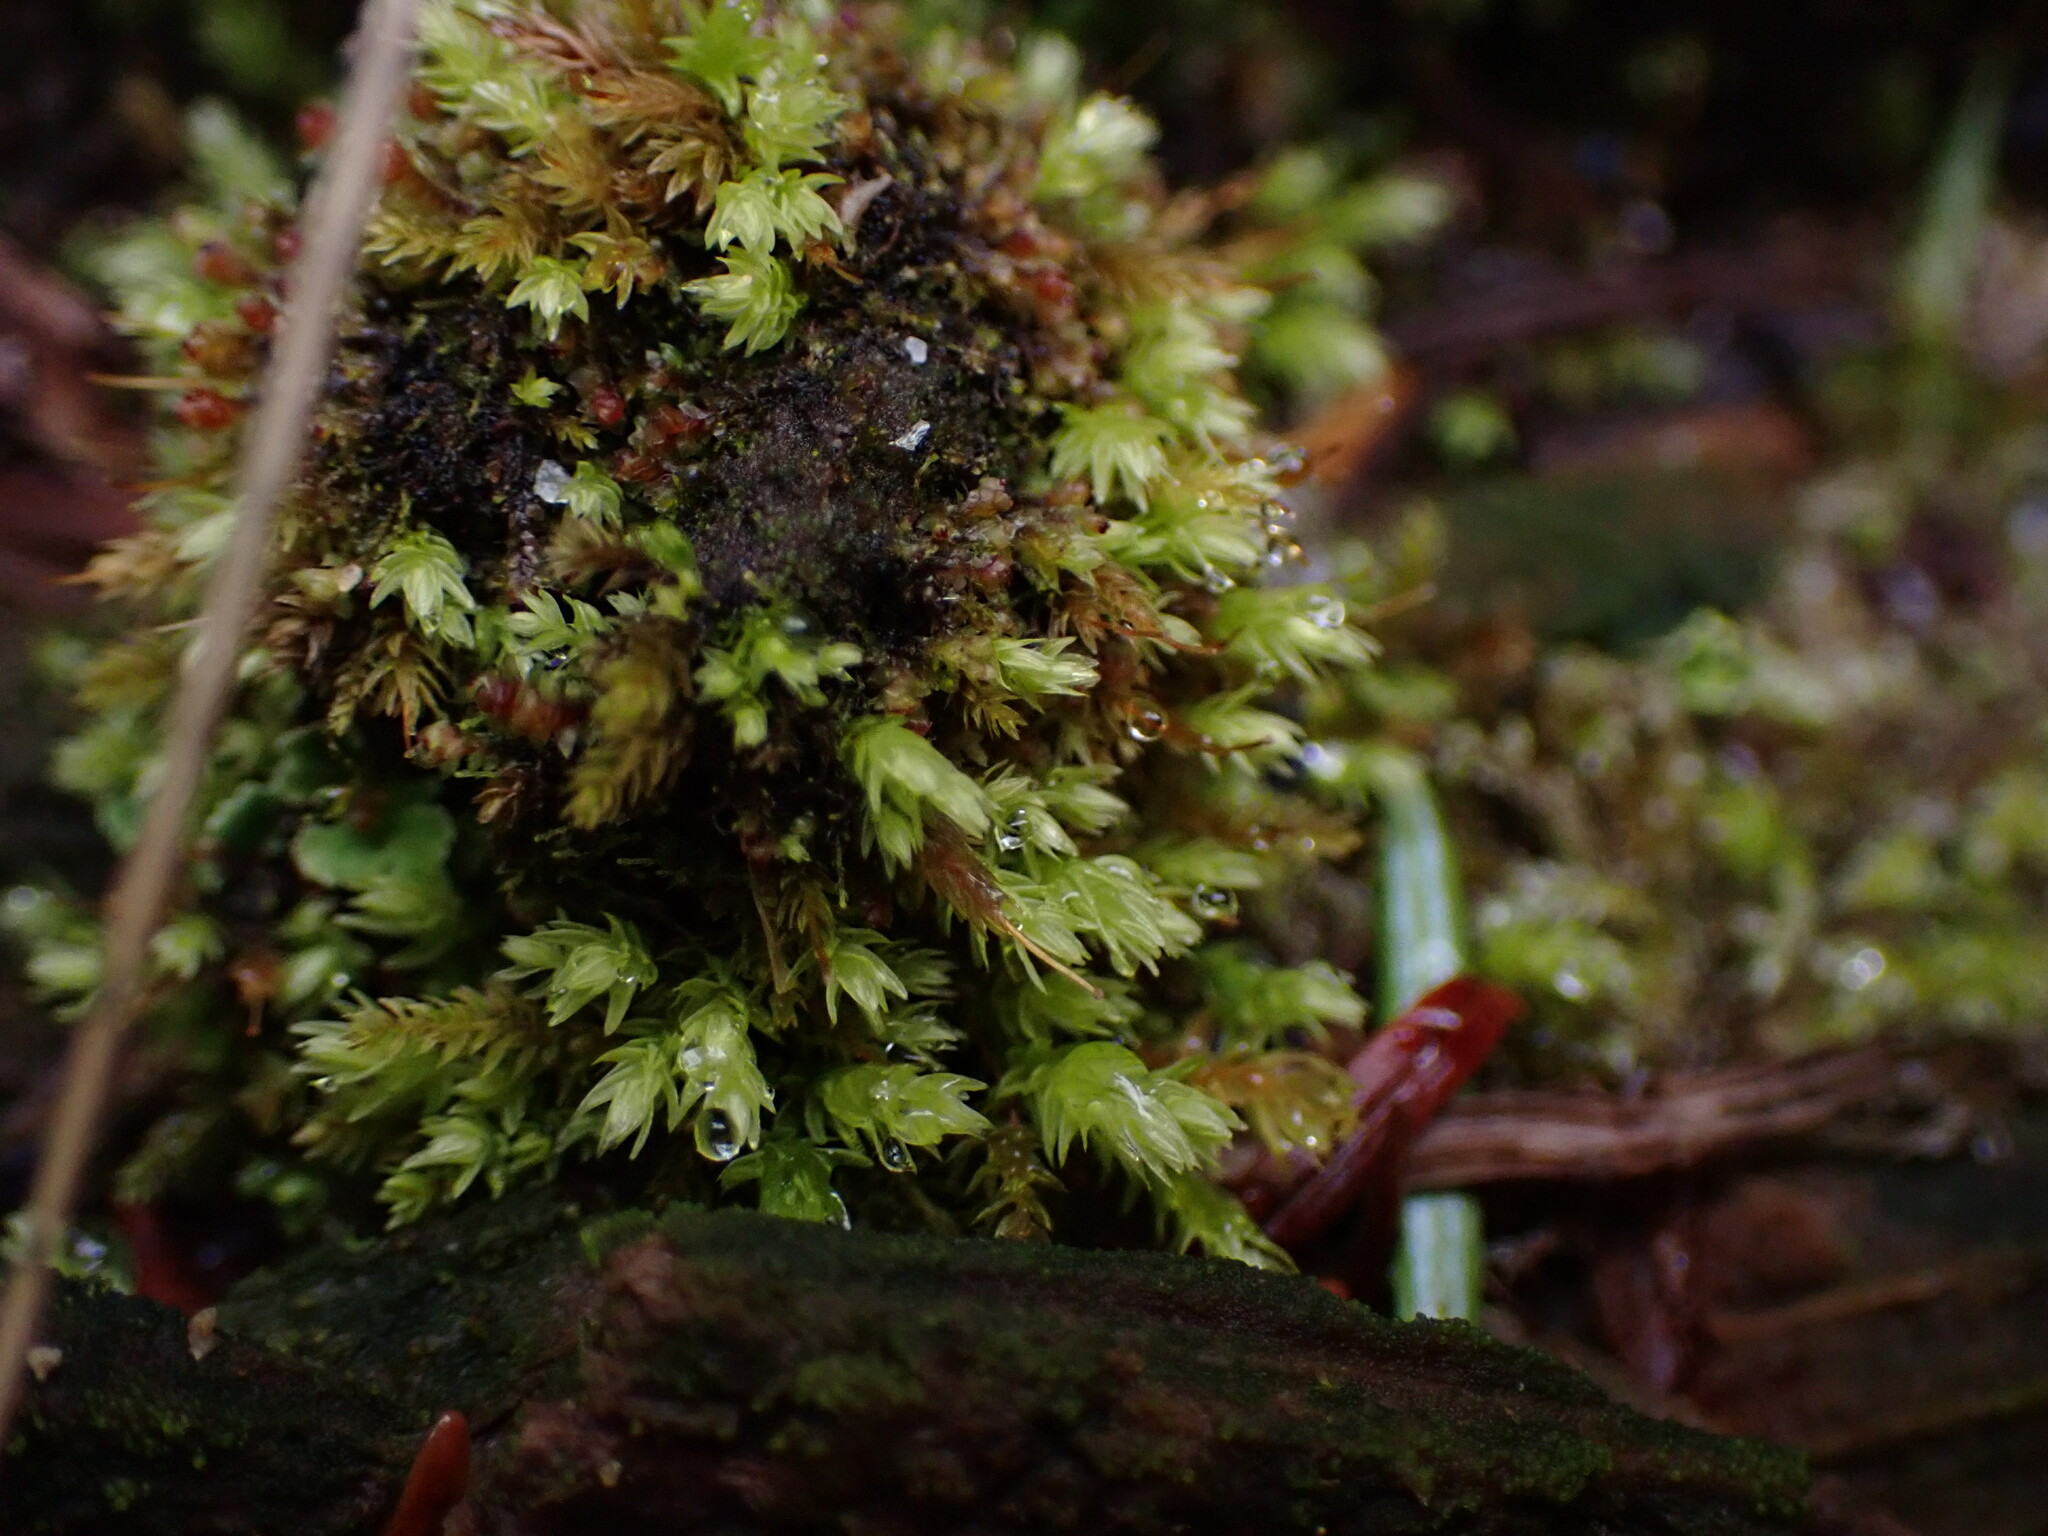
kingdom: Plantae
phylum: Bryophyta
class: Bryopsida
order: Aulacomniales
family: Aulacomniaceae
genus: Aulacomnium
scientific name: Aulacomnium androgynum
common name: Little groove moss
